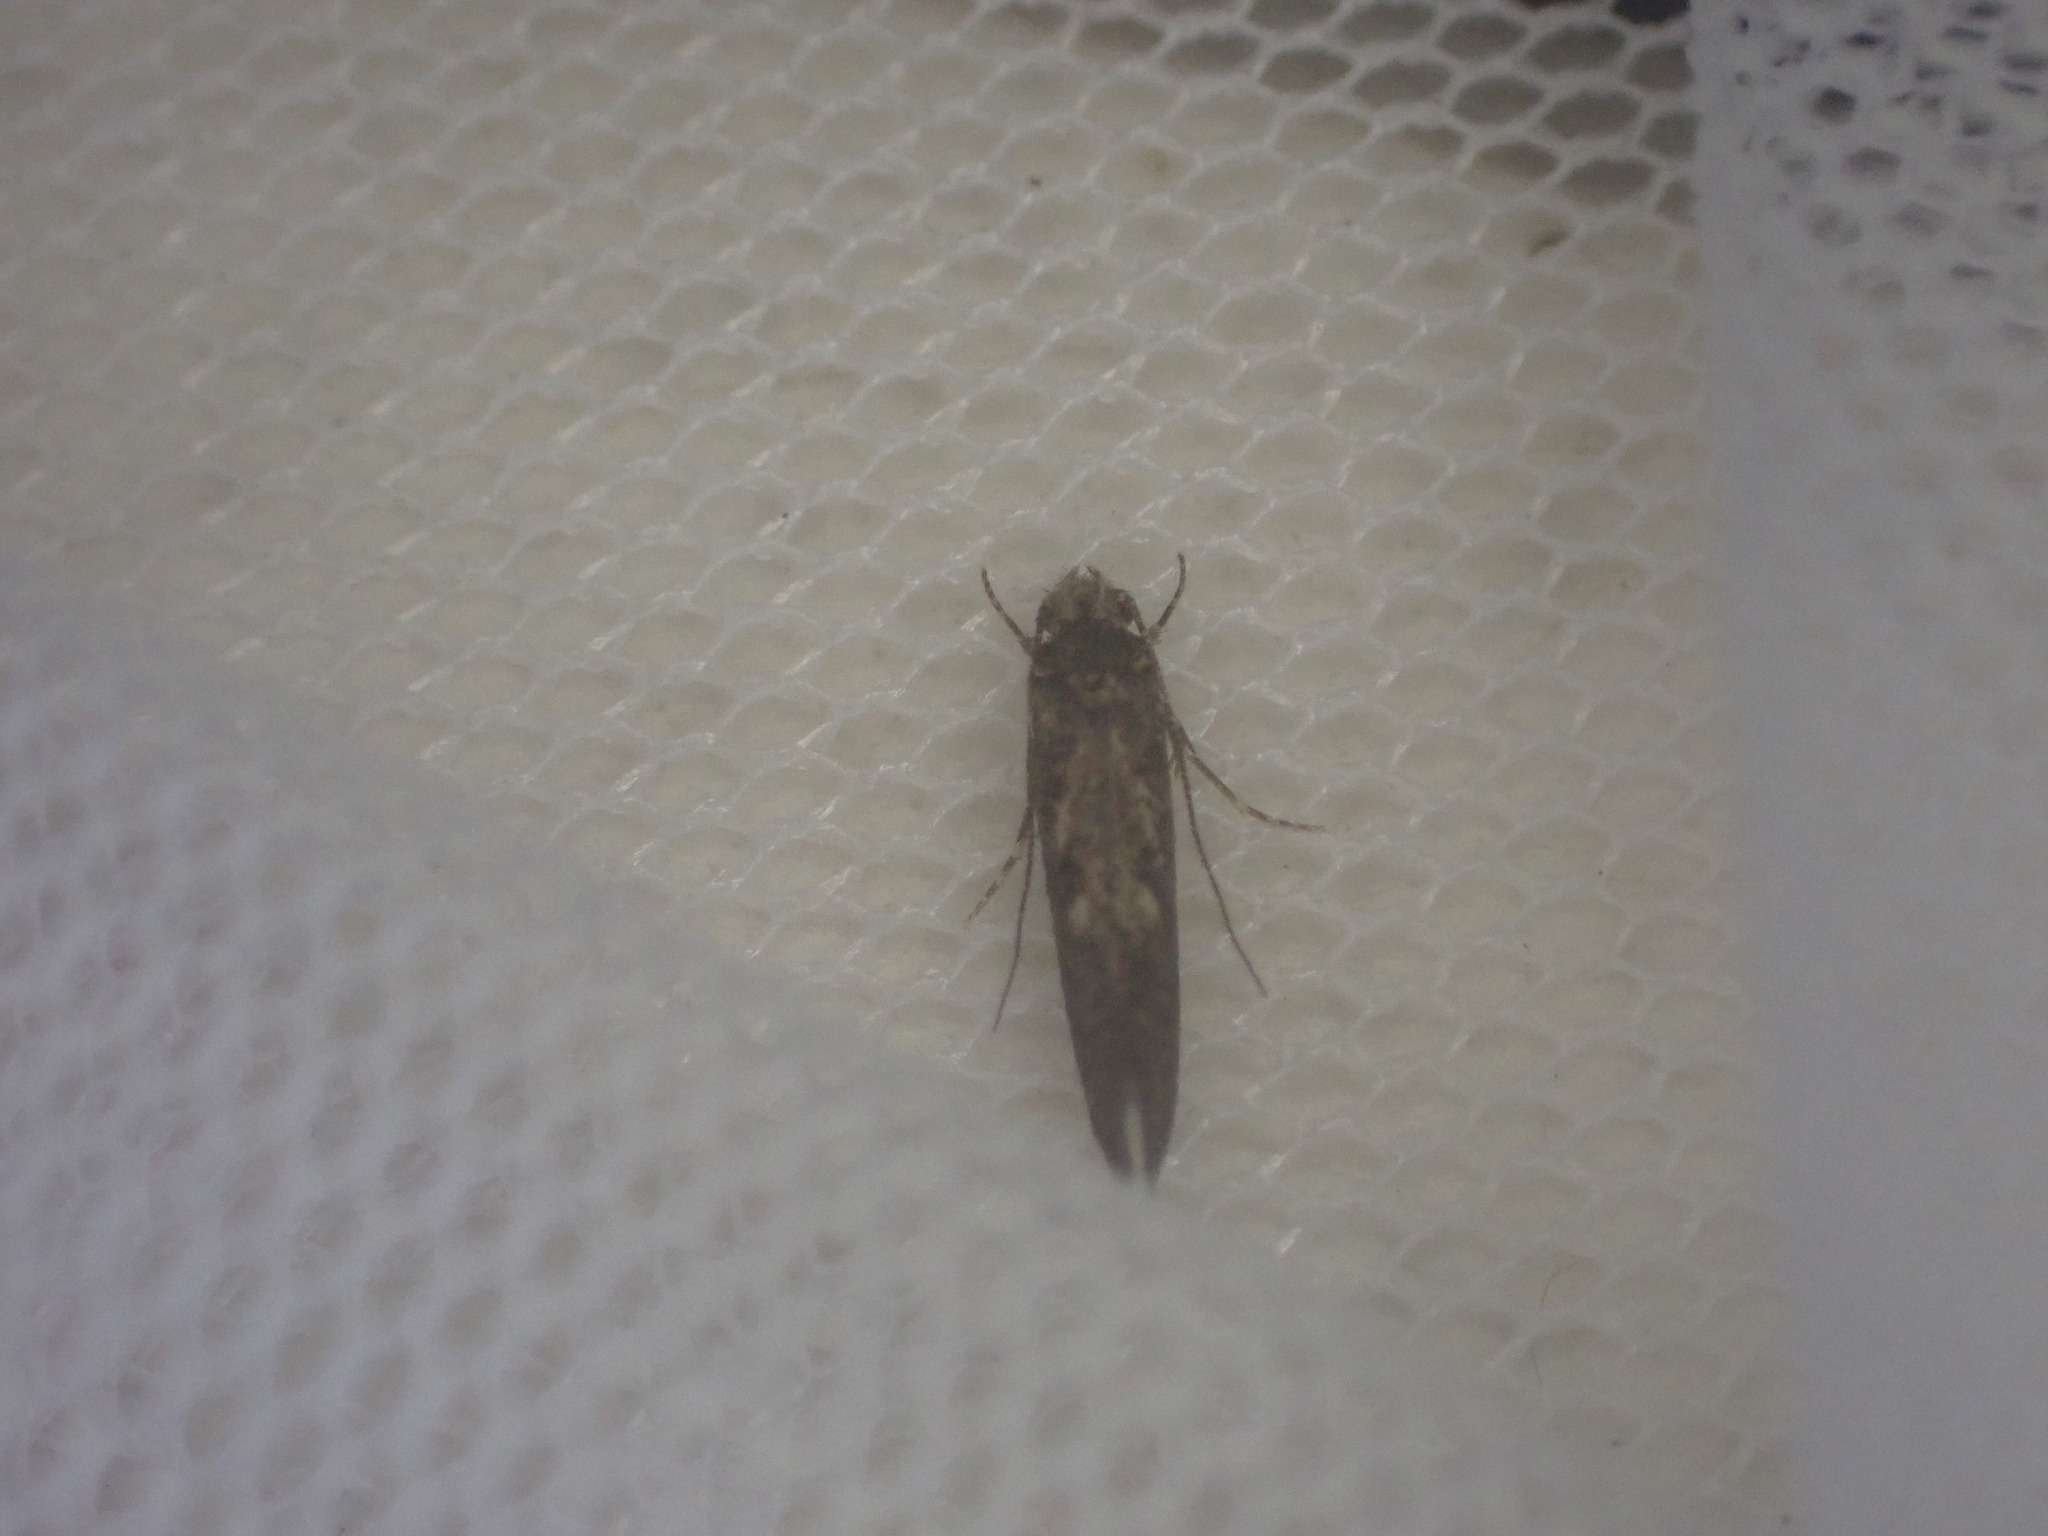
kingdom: Animalia
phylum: Arthropoda
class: Insecta
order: Lepidoptera
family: Tineidae
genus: Tinea
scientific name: Tinea conferta
